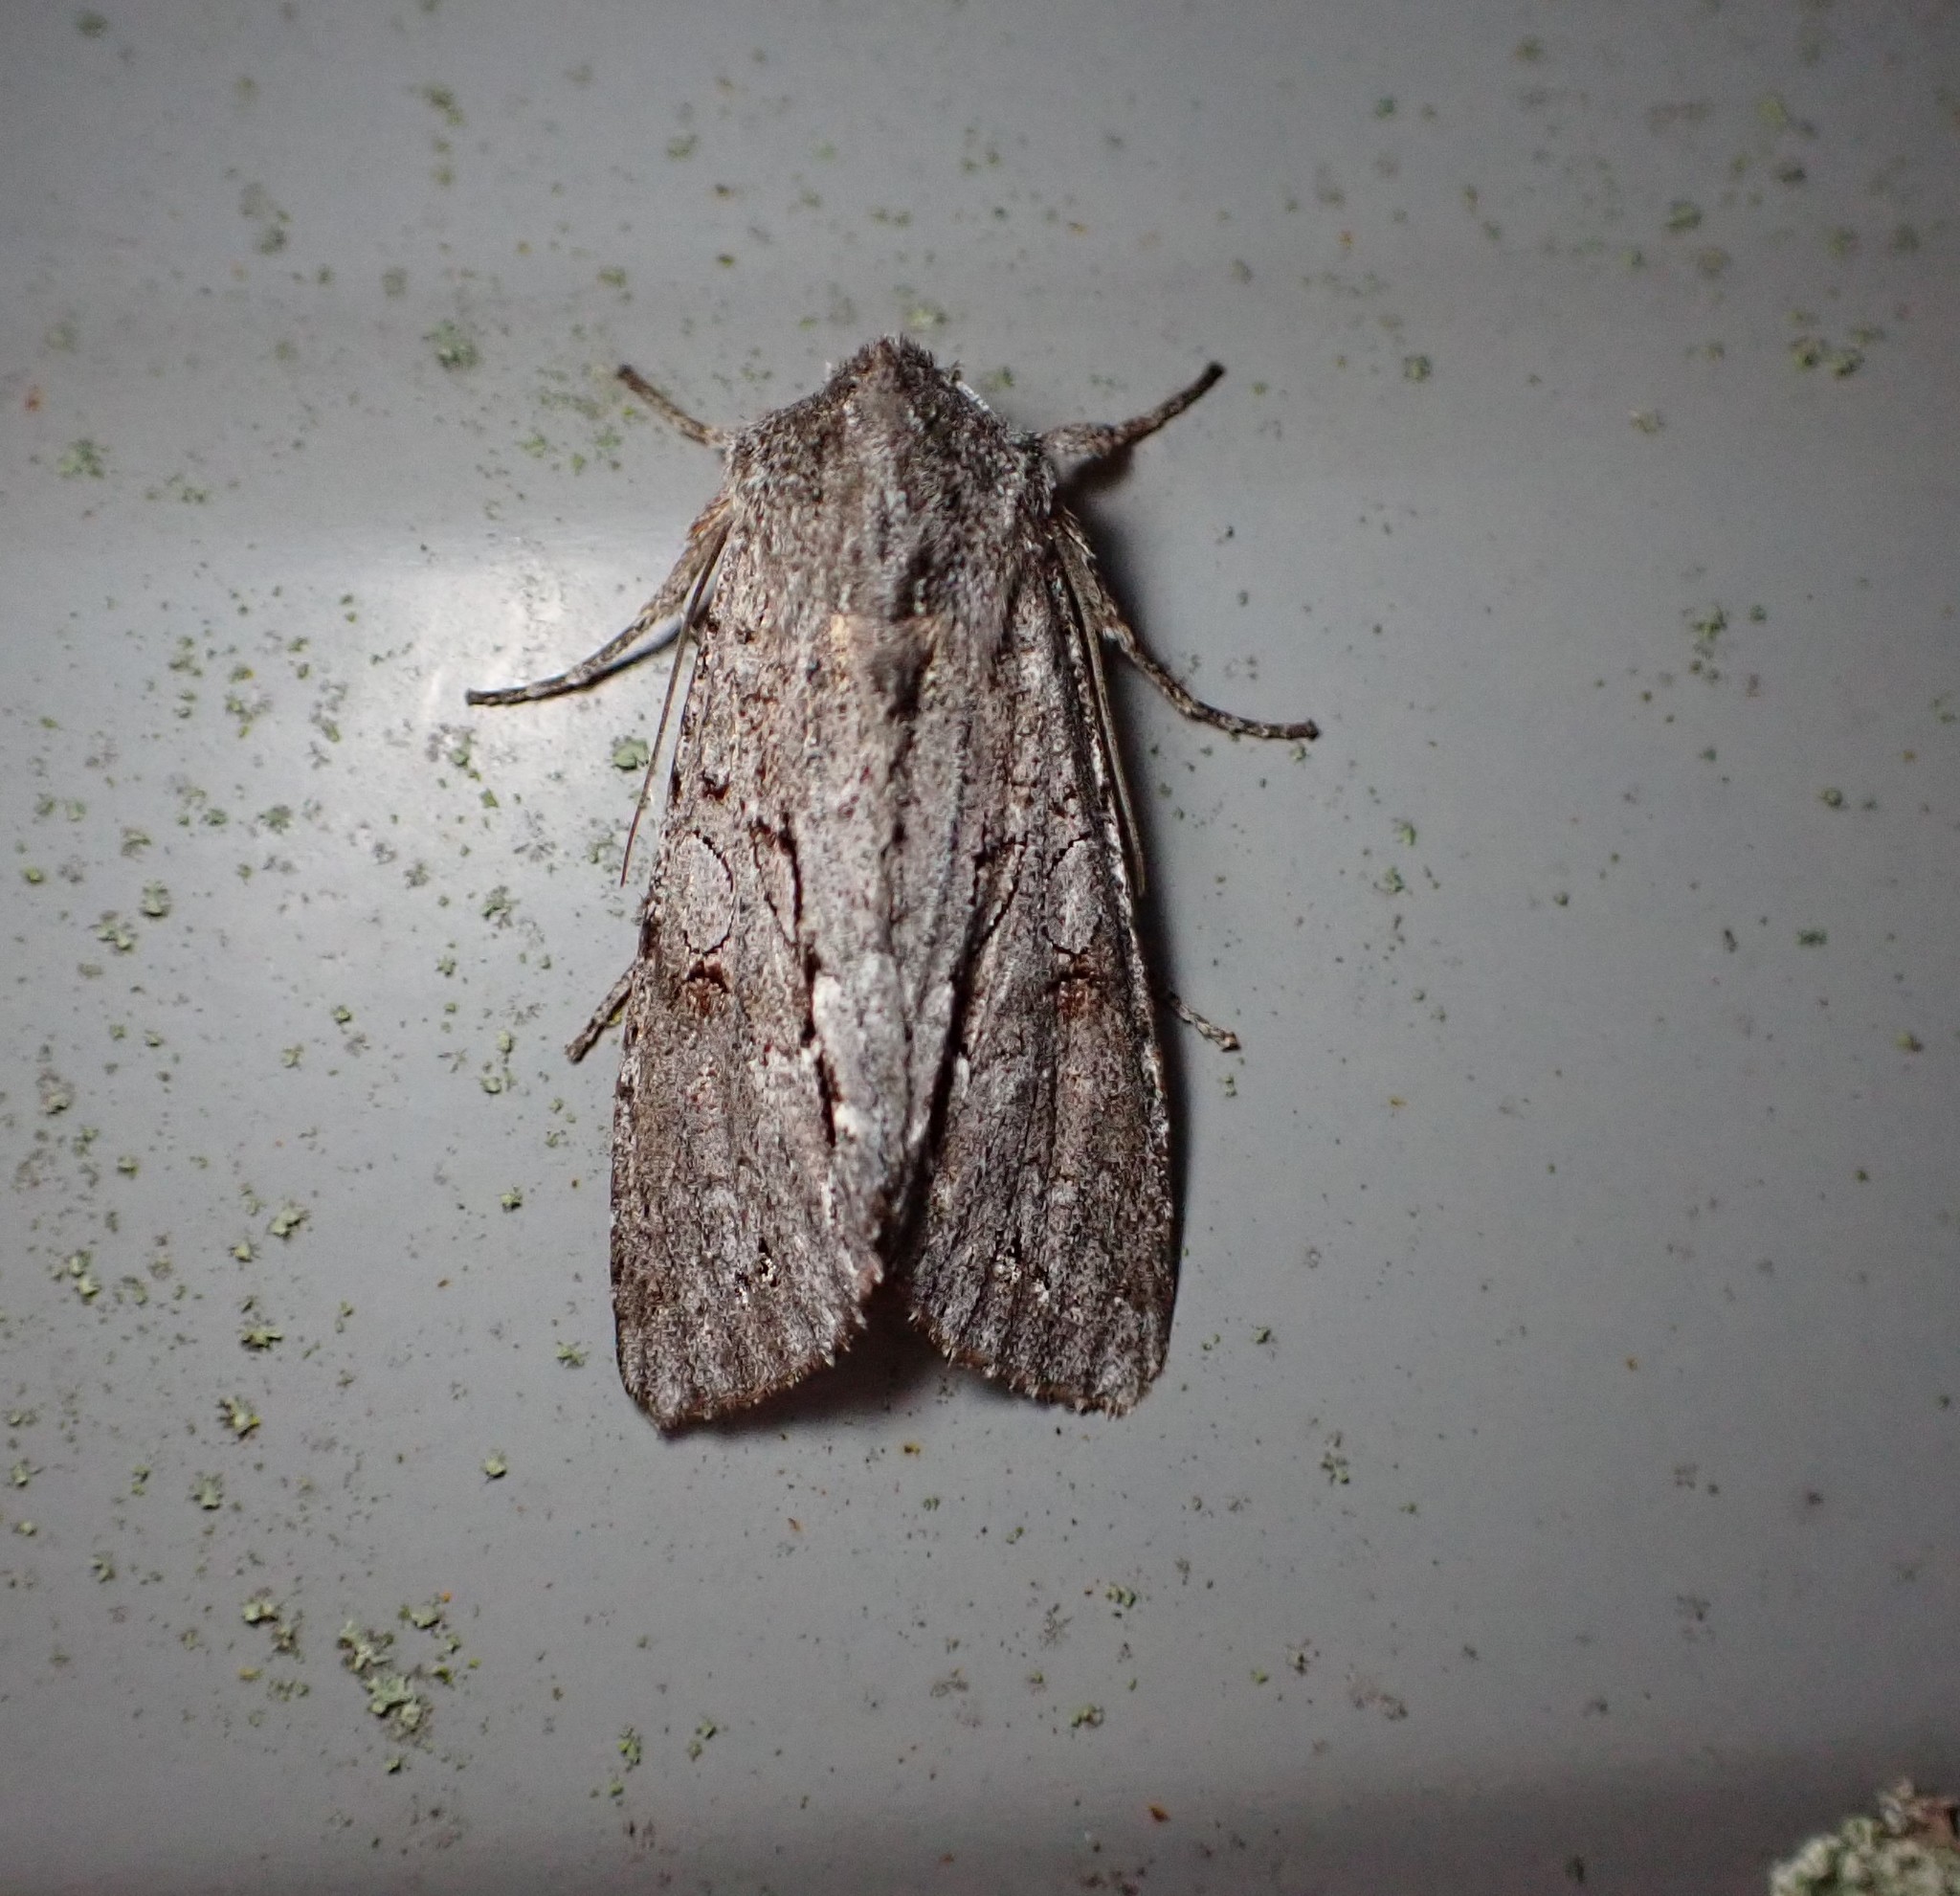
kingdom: Animalia
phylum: Arthropoda
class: Insecta
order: Lepidoptera
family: Noctuidae
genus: Ichneutica
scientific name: Ichneutica
